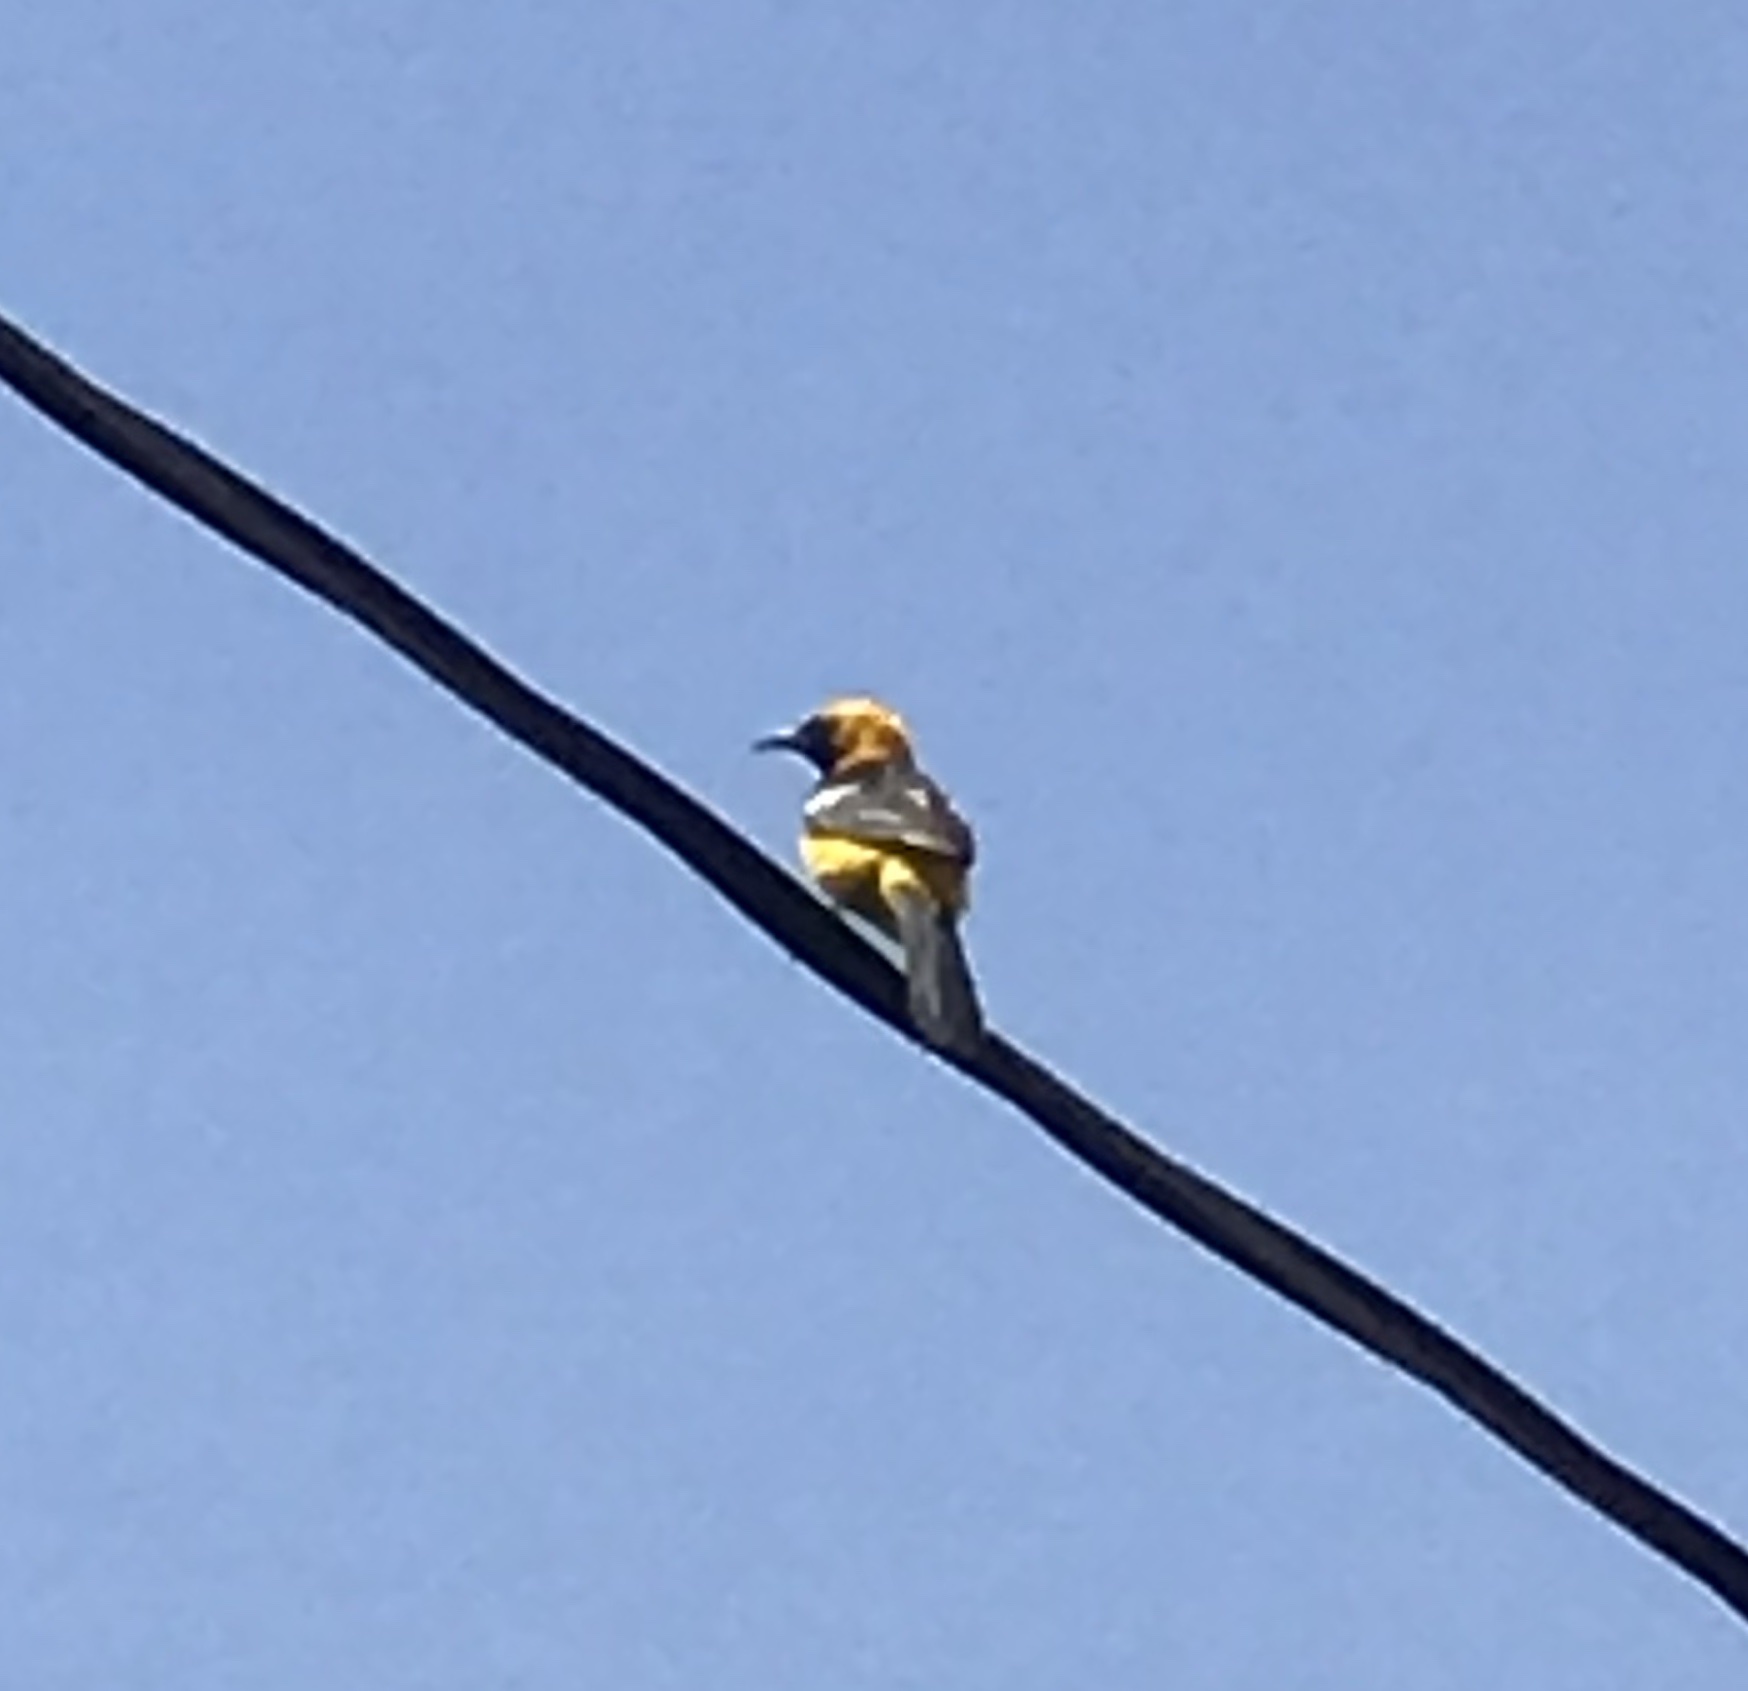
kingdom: Animalia
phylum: Chordata
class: Aves
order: Passeriformes
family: Icteridae
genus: Icterus
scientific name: Icterus cucullatus
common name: Hooded oriole
